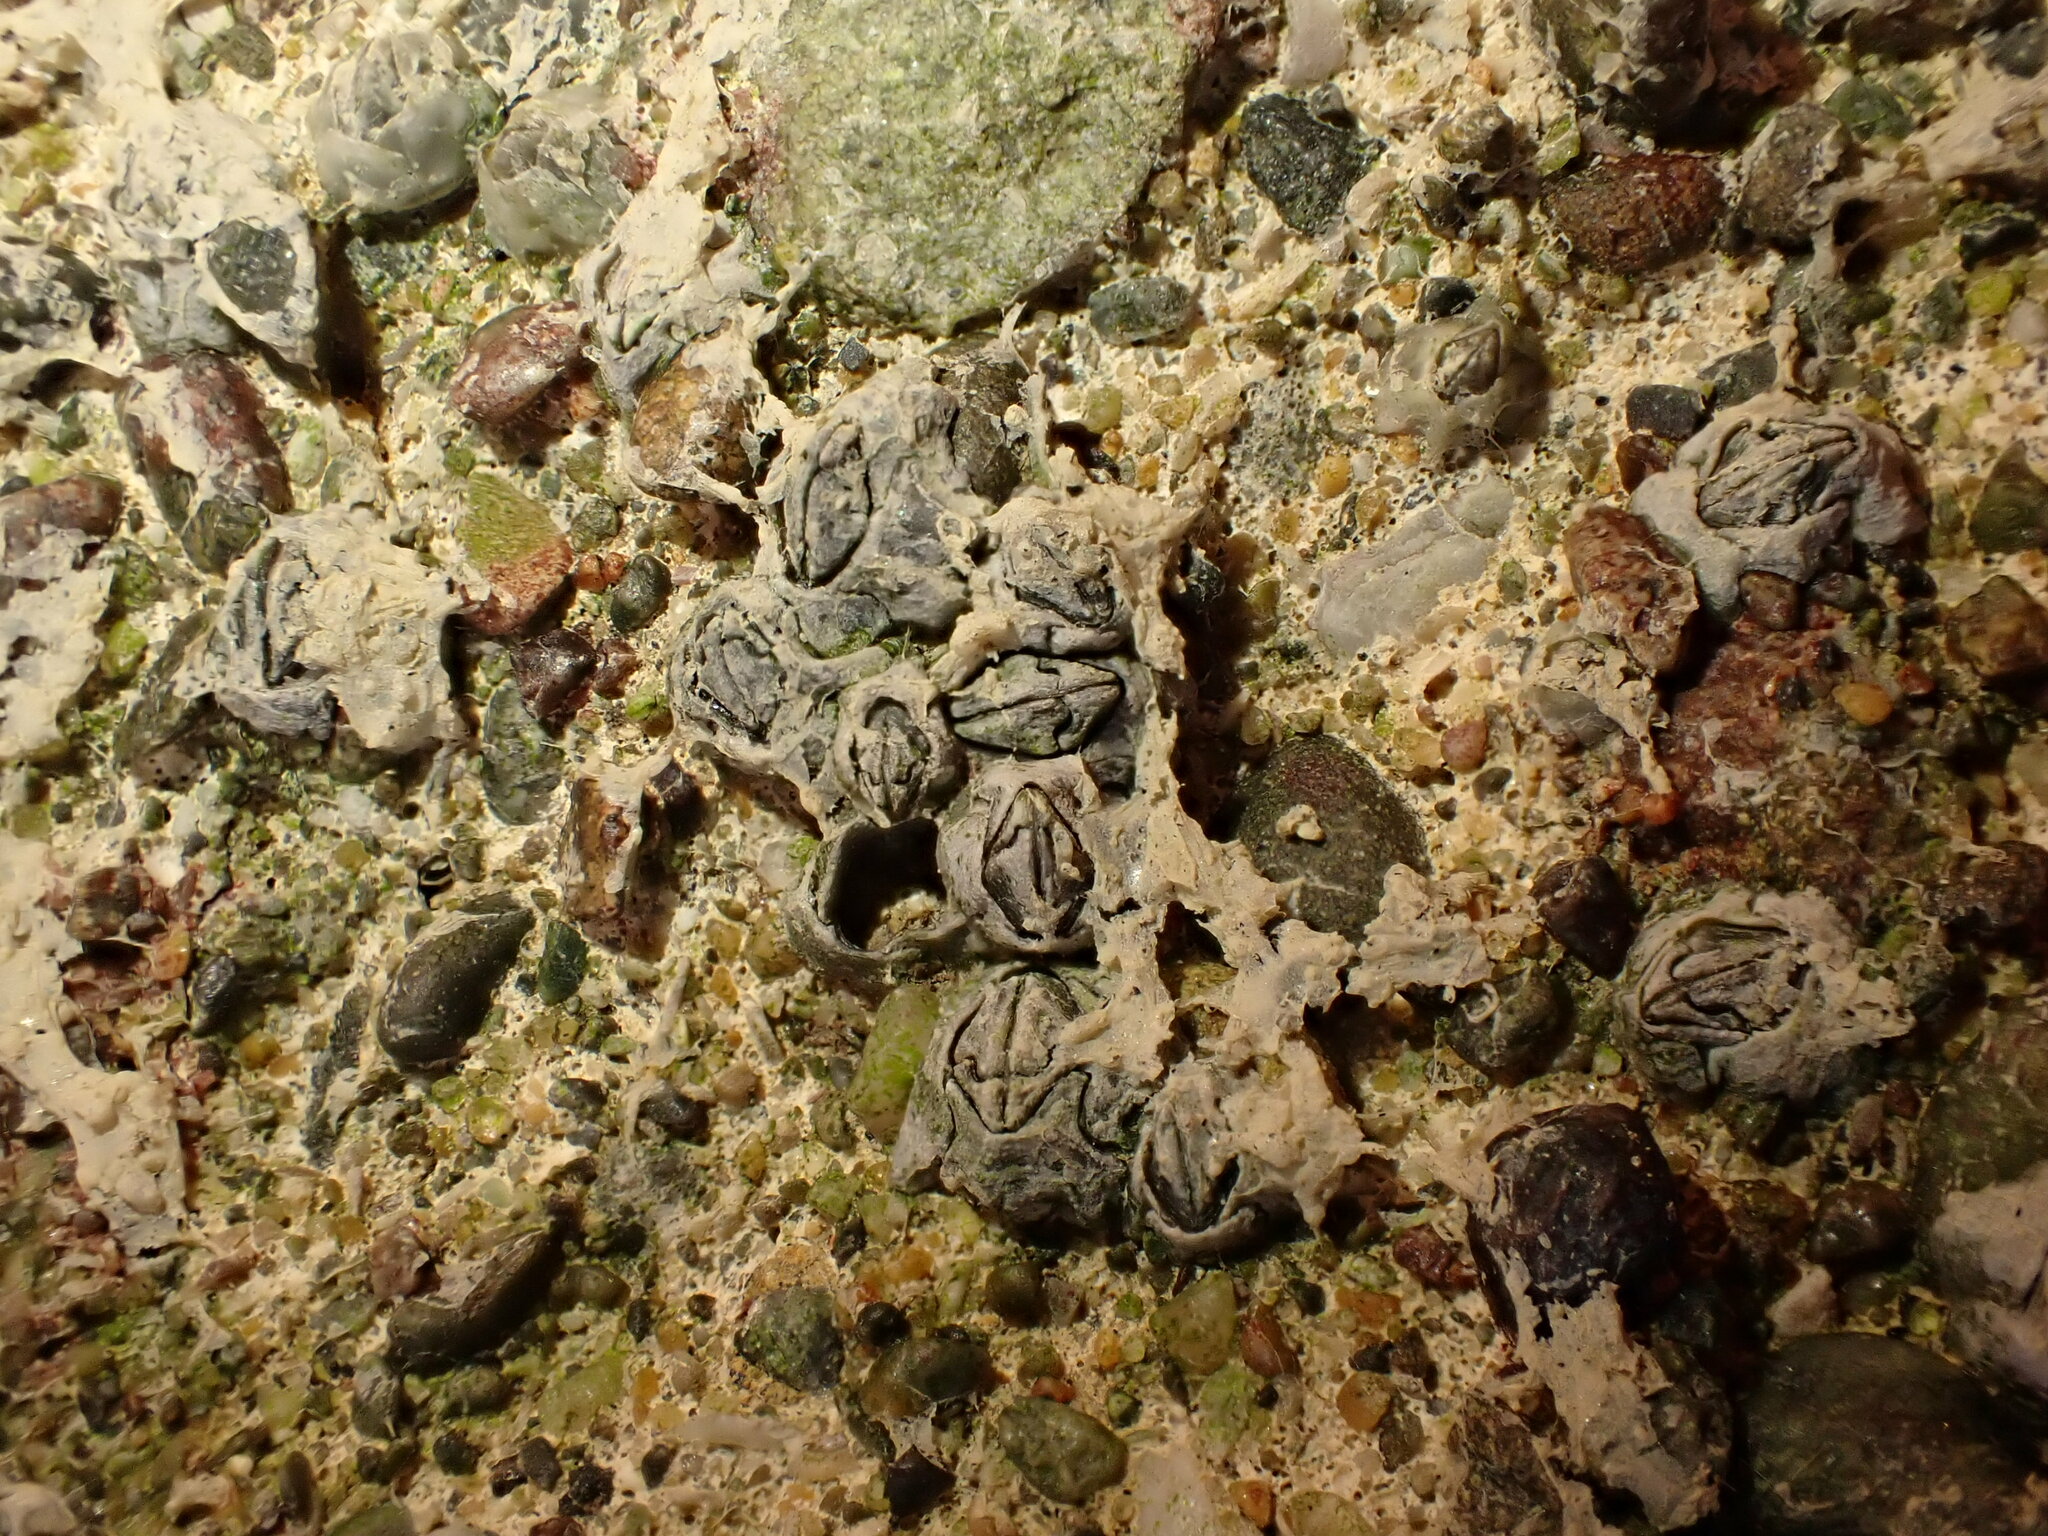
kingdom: Animalia
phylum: Arthropoda
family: Elminiidae
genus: Austrominius
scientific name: Austrominius modestus
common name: Australasian barnacle
